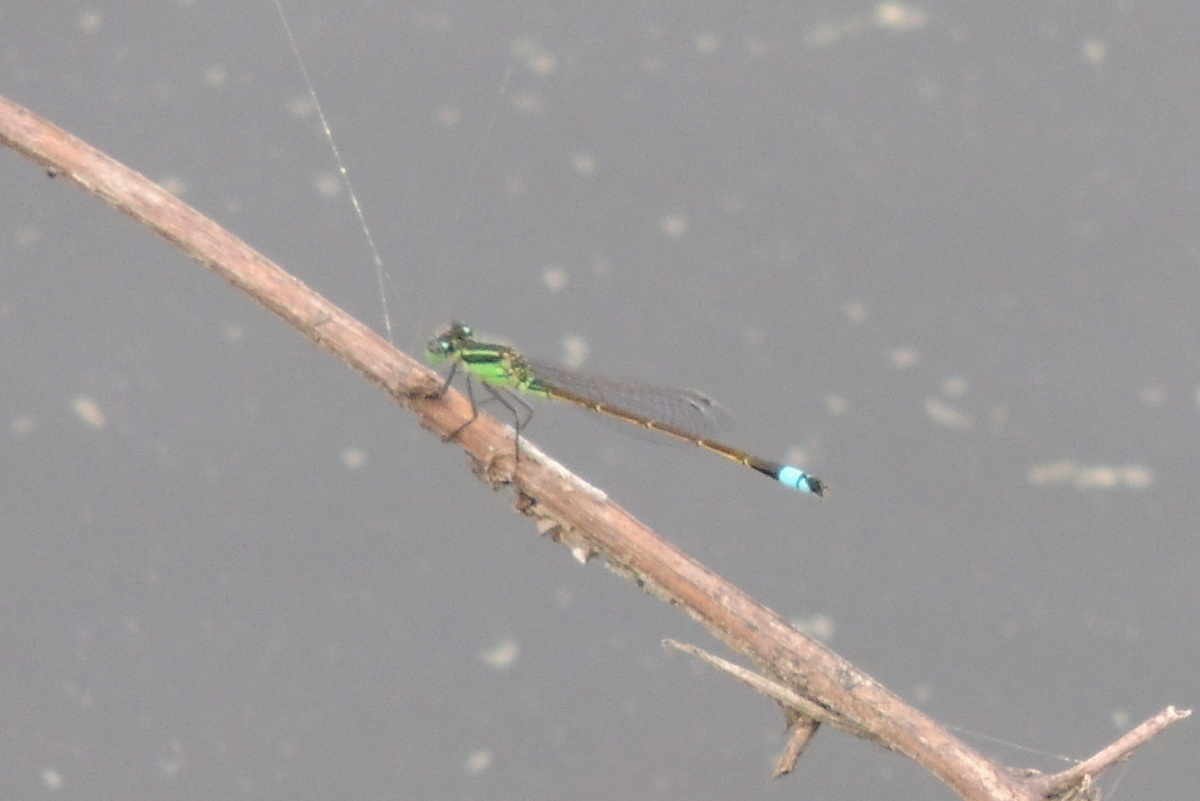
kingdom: Animalia
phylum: Arthropoda
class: Insecta
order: Odonata
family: Coenagrionidae
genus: Ischnura
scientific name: Ischnura ramburii
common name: Rambur's forktail
